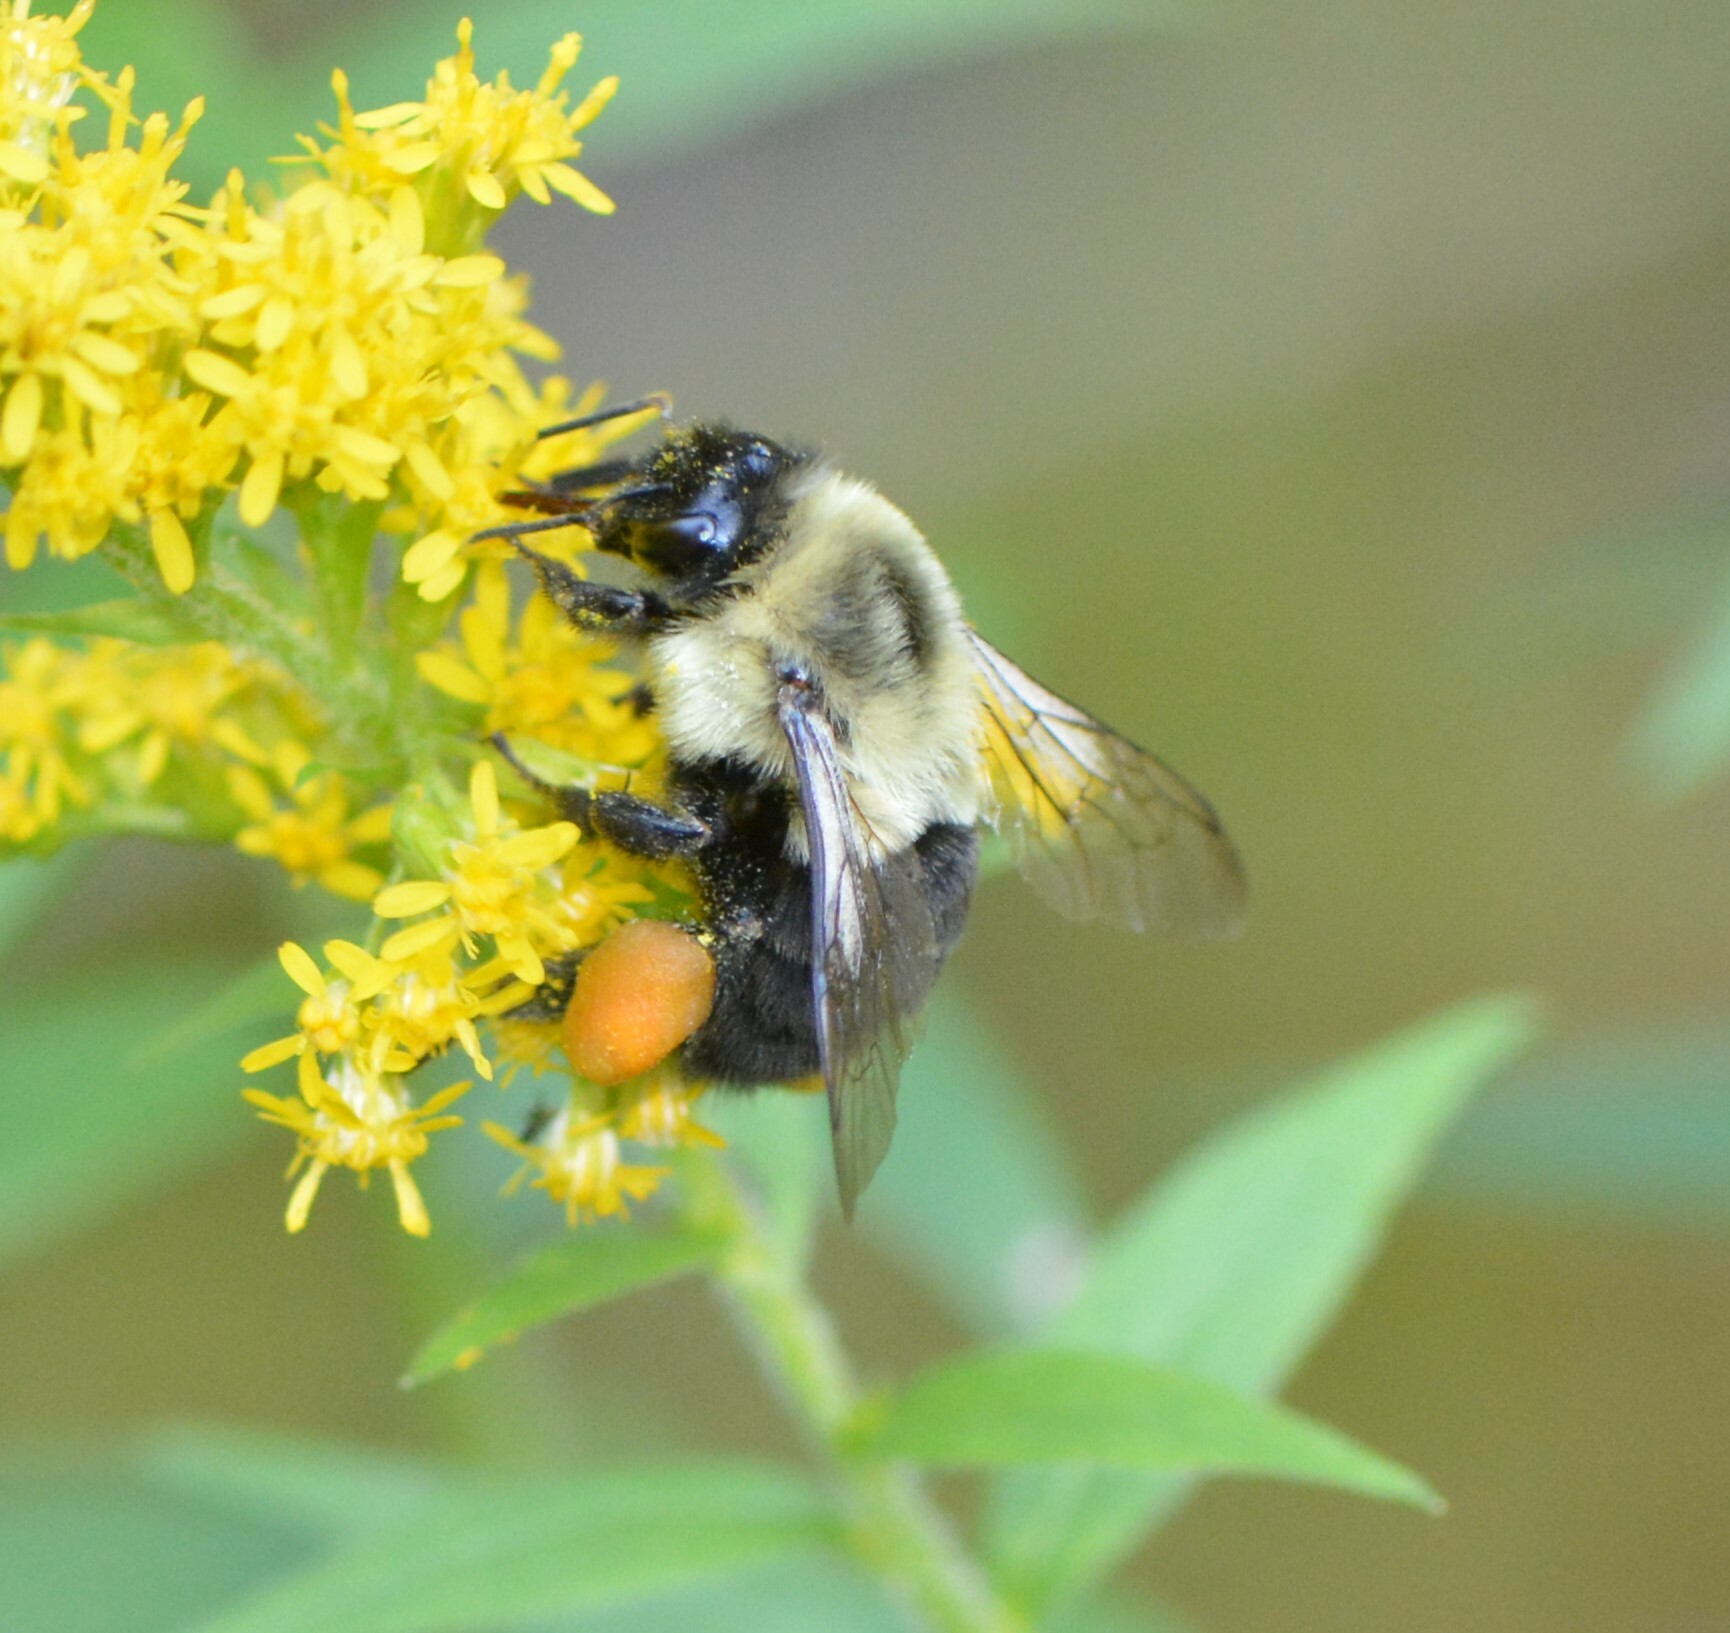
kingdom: Animalia
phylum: Arthropoda
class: Insecta
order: Hymenoptera
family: Apidae
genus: Bombus
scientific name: Bombus impatiens
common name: Common eastern bumble bee
